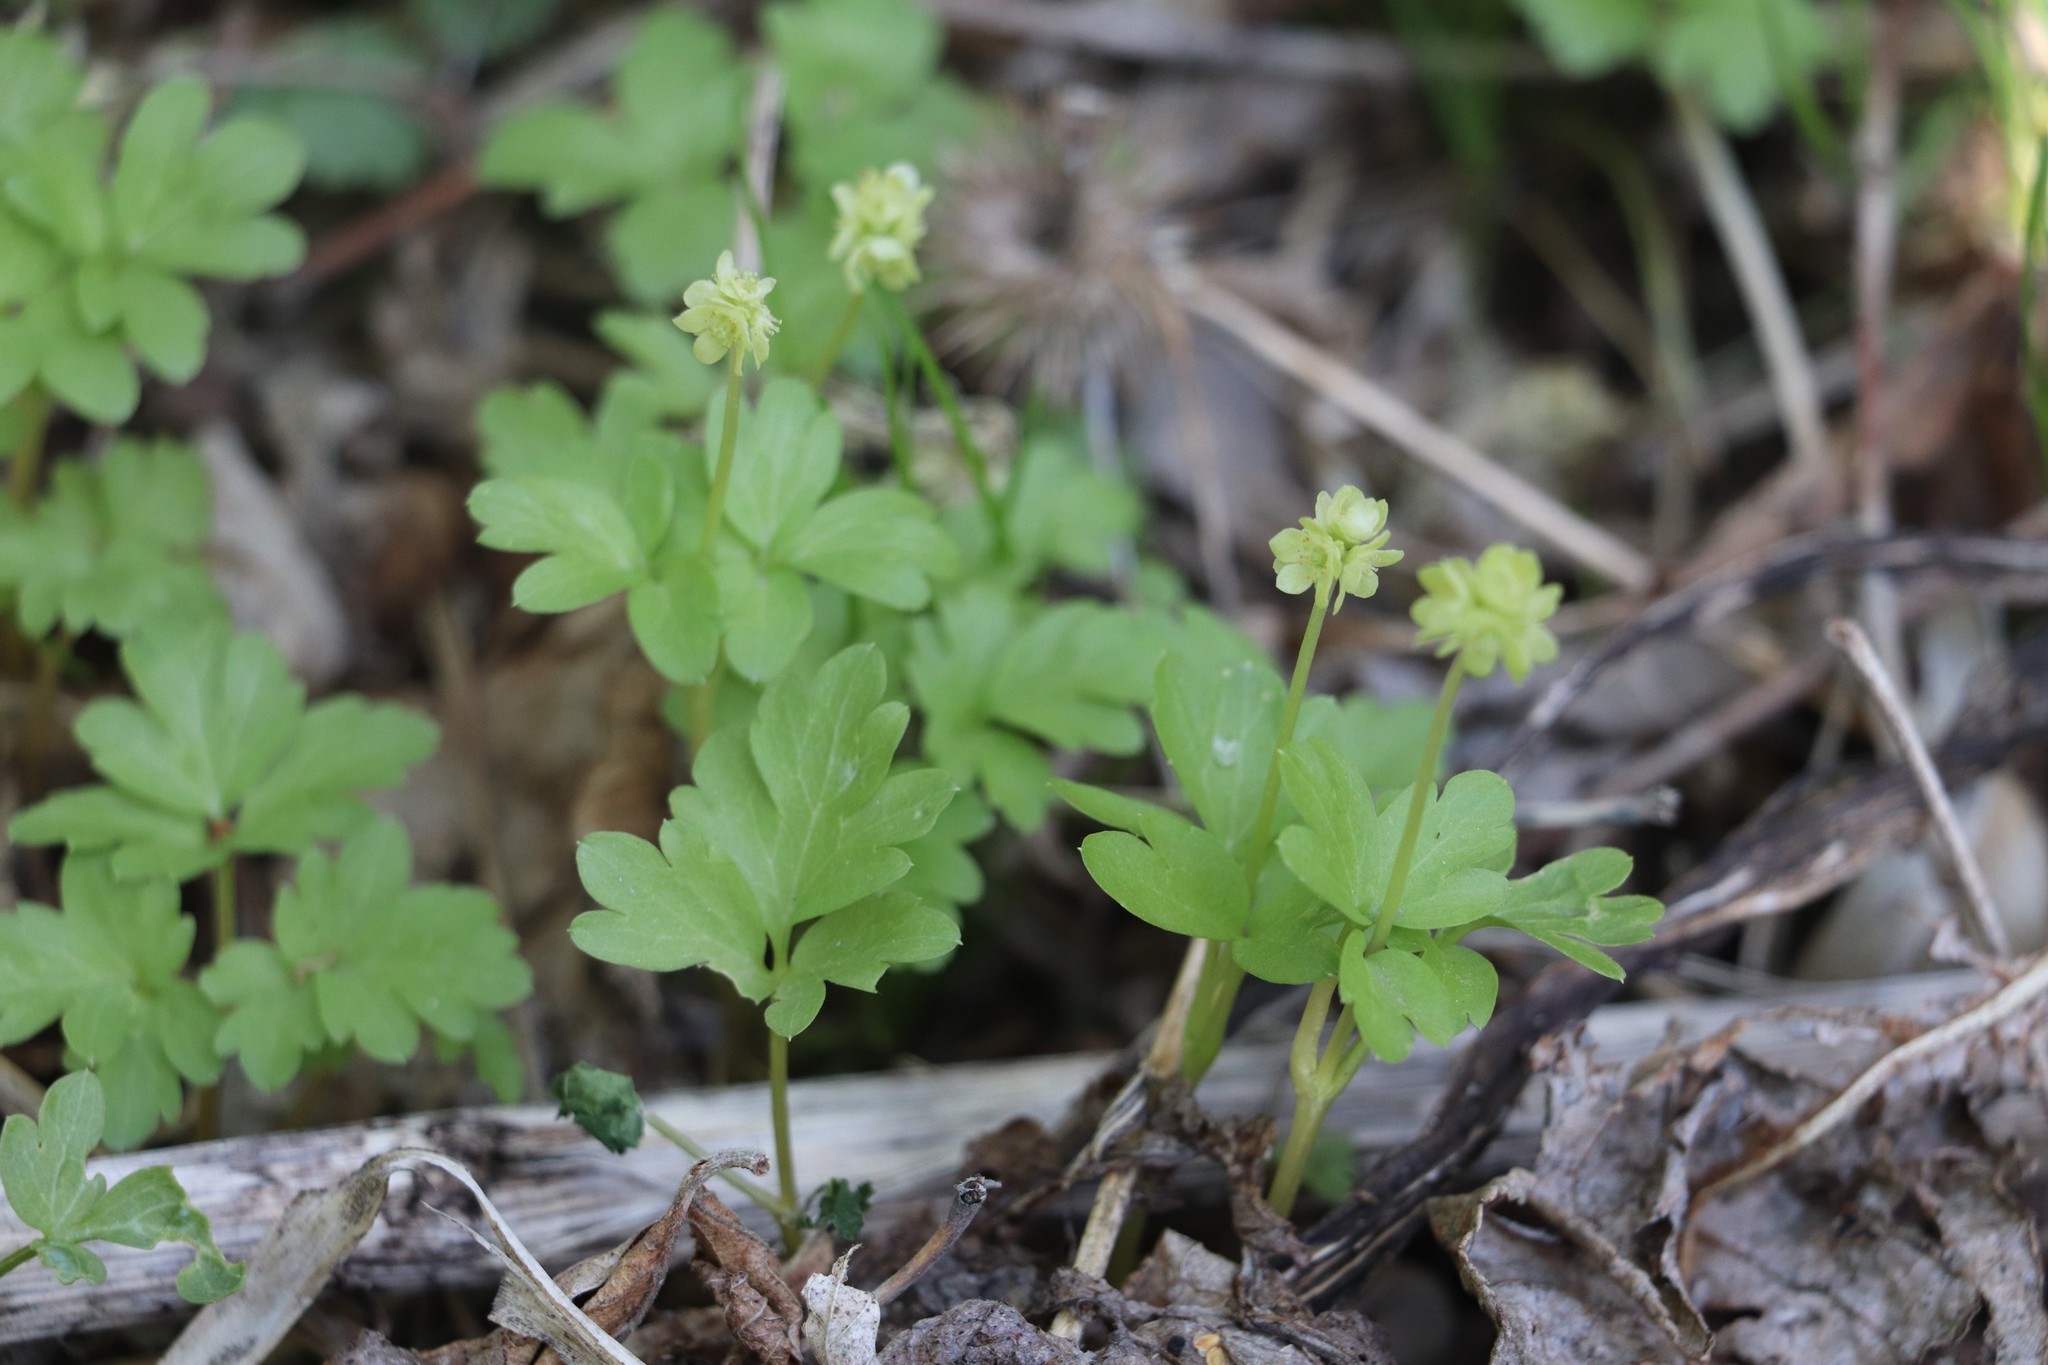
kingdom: Plantae
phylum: Tracheophyta
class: Magnoliopsida
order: Dipsacales
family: Viburnaceae
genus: Adoxa
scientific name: Adoxa moschatellina
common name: Moschatel
